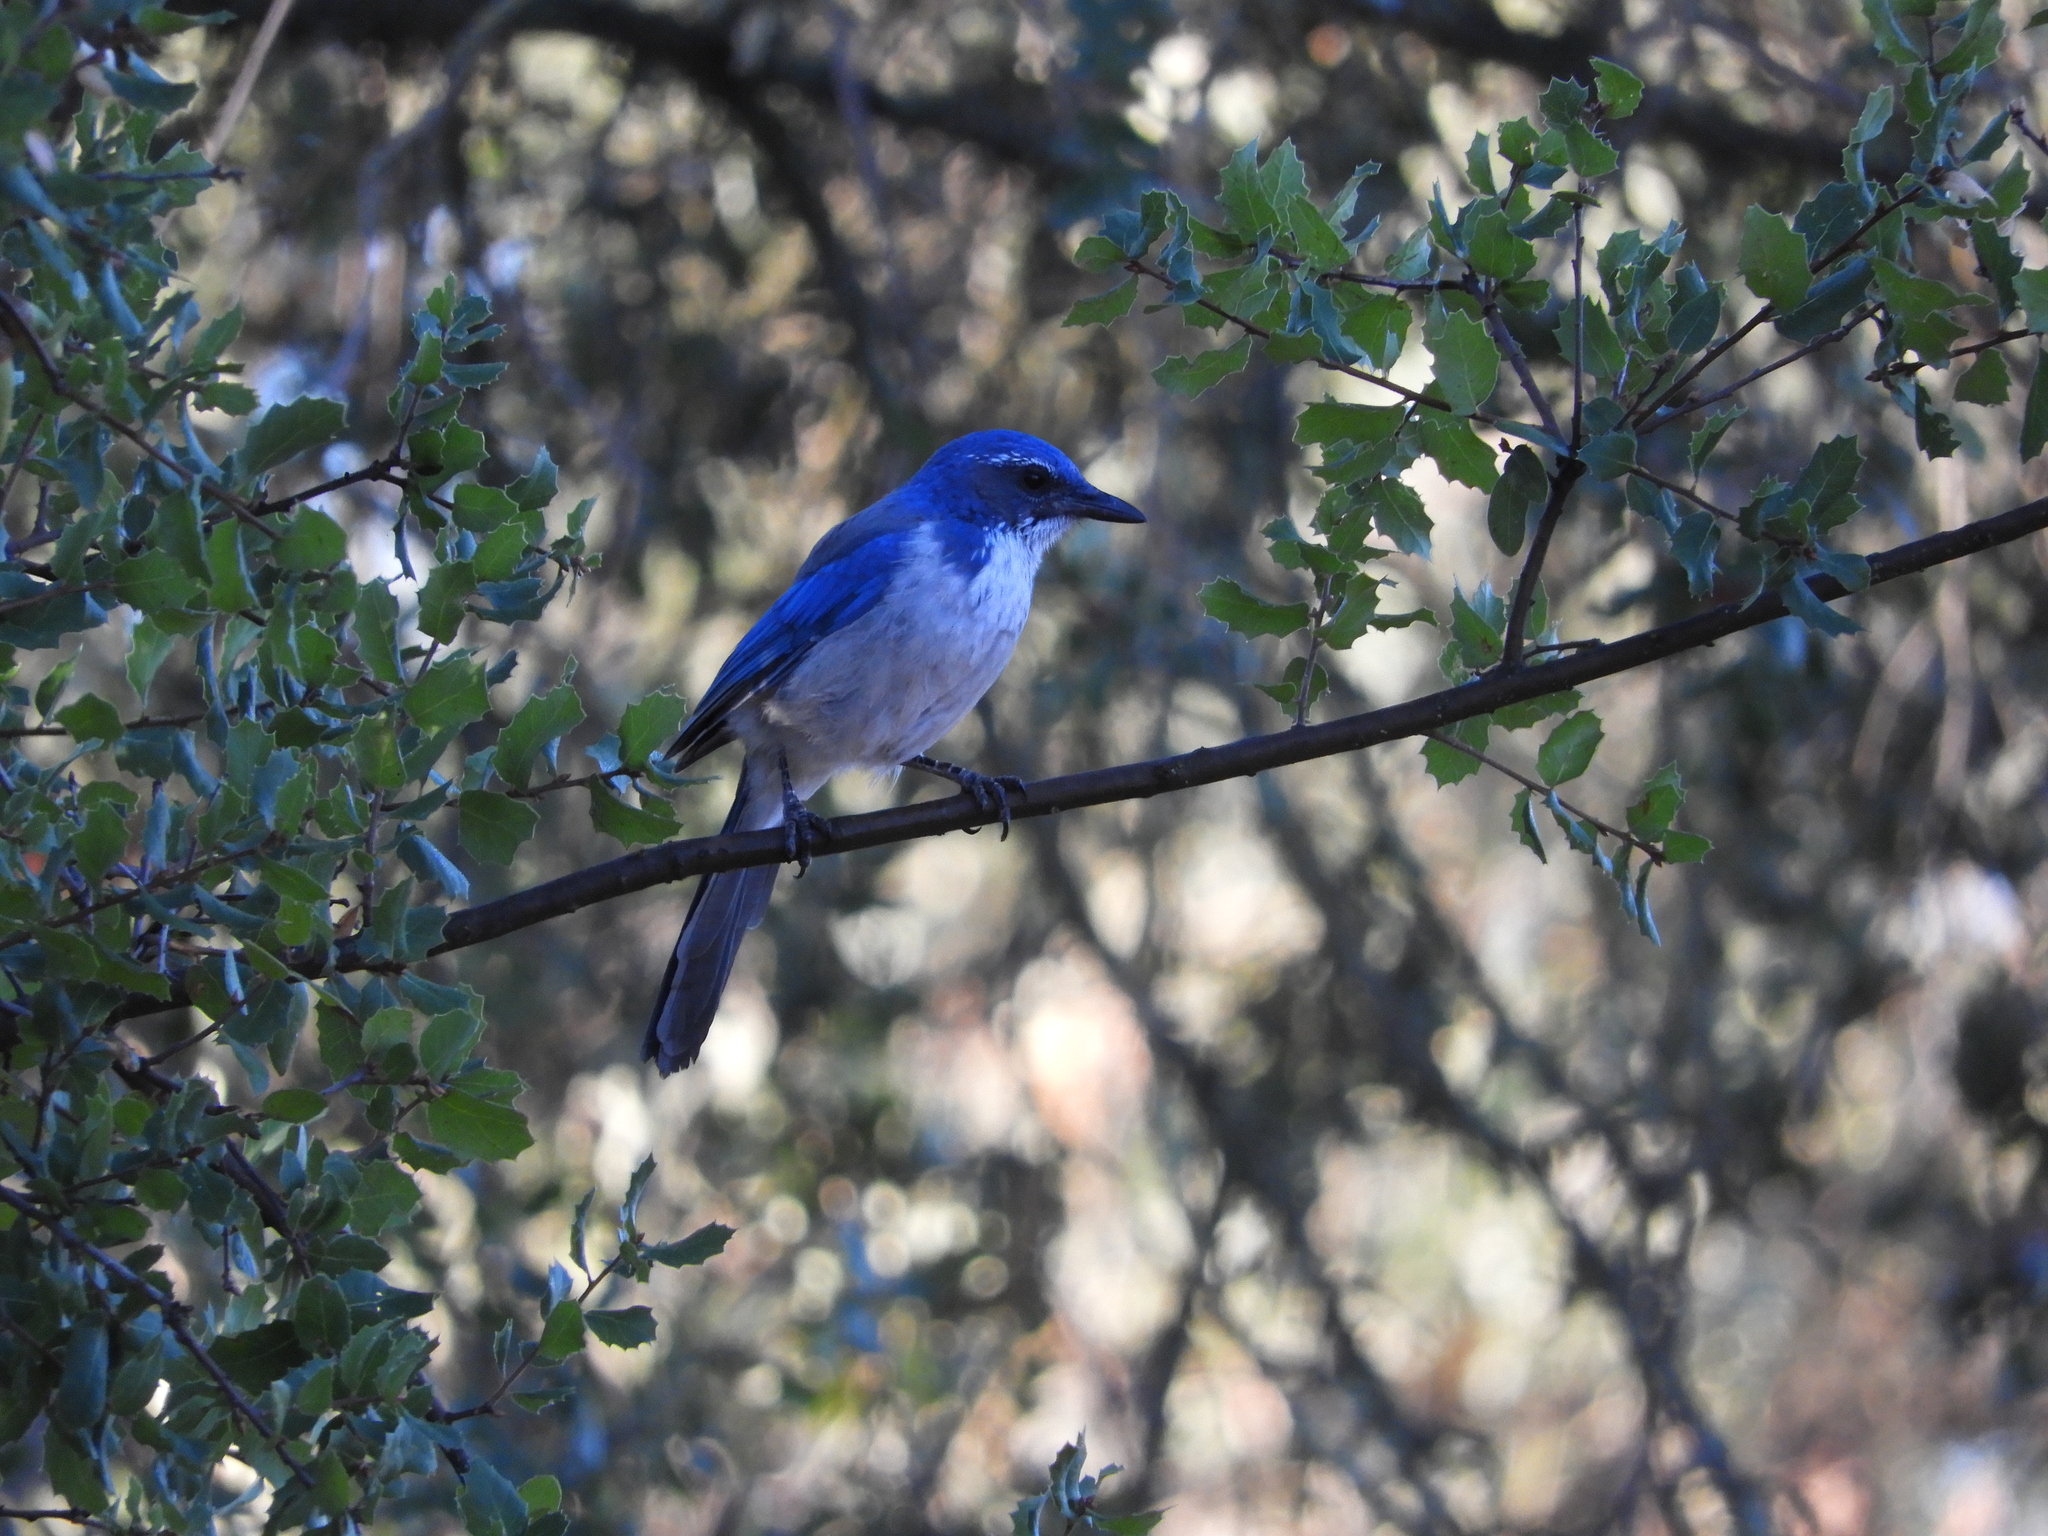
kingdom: Animalia
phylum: Chordata
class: Aves
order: Passeriformes
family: Corvidae
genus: Aphelocoma
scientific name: Aphelocoma californica
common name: California scrub-jay
